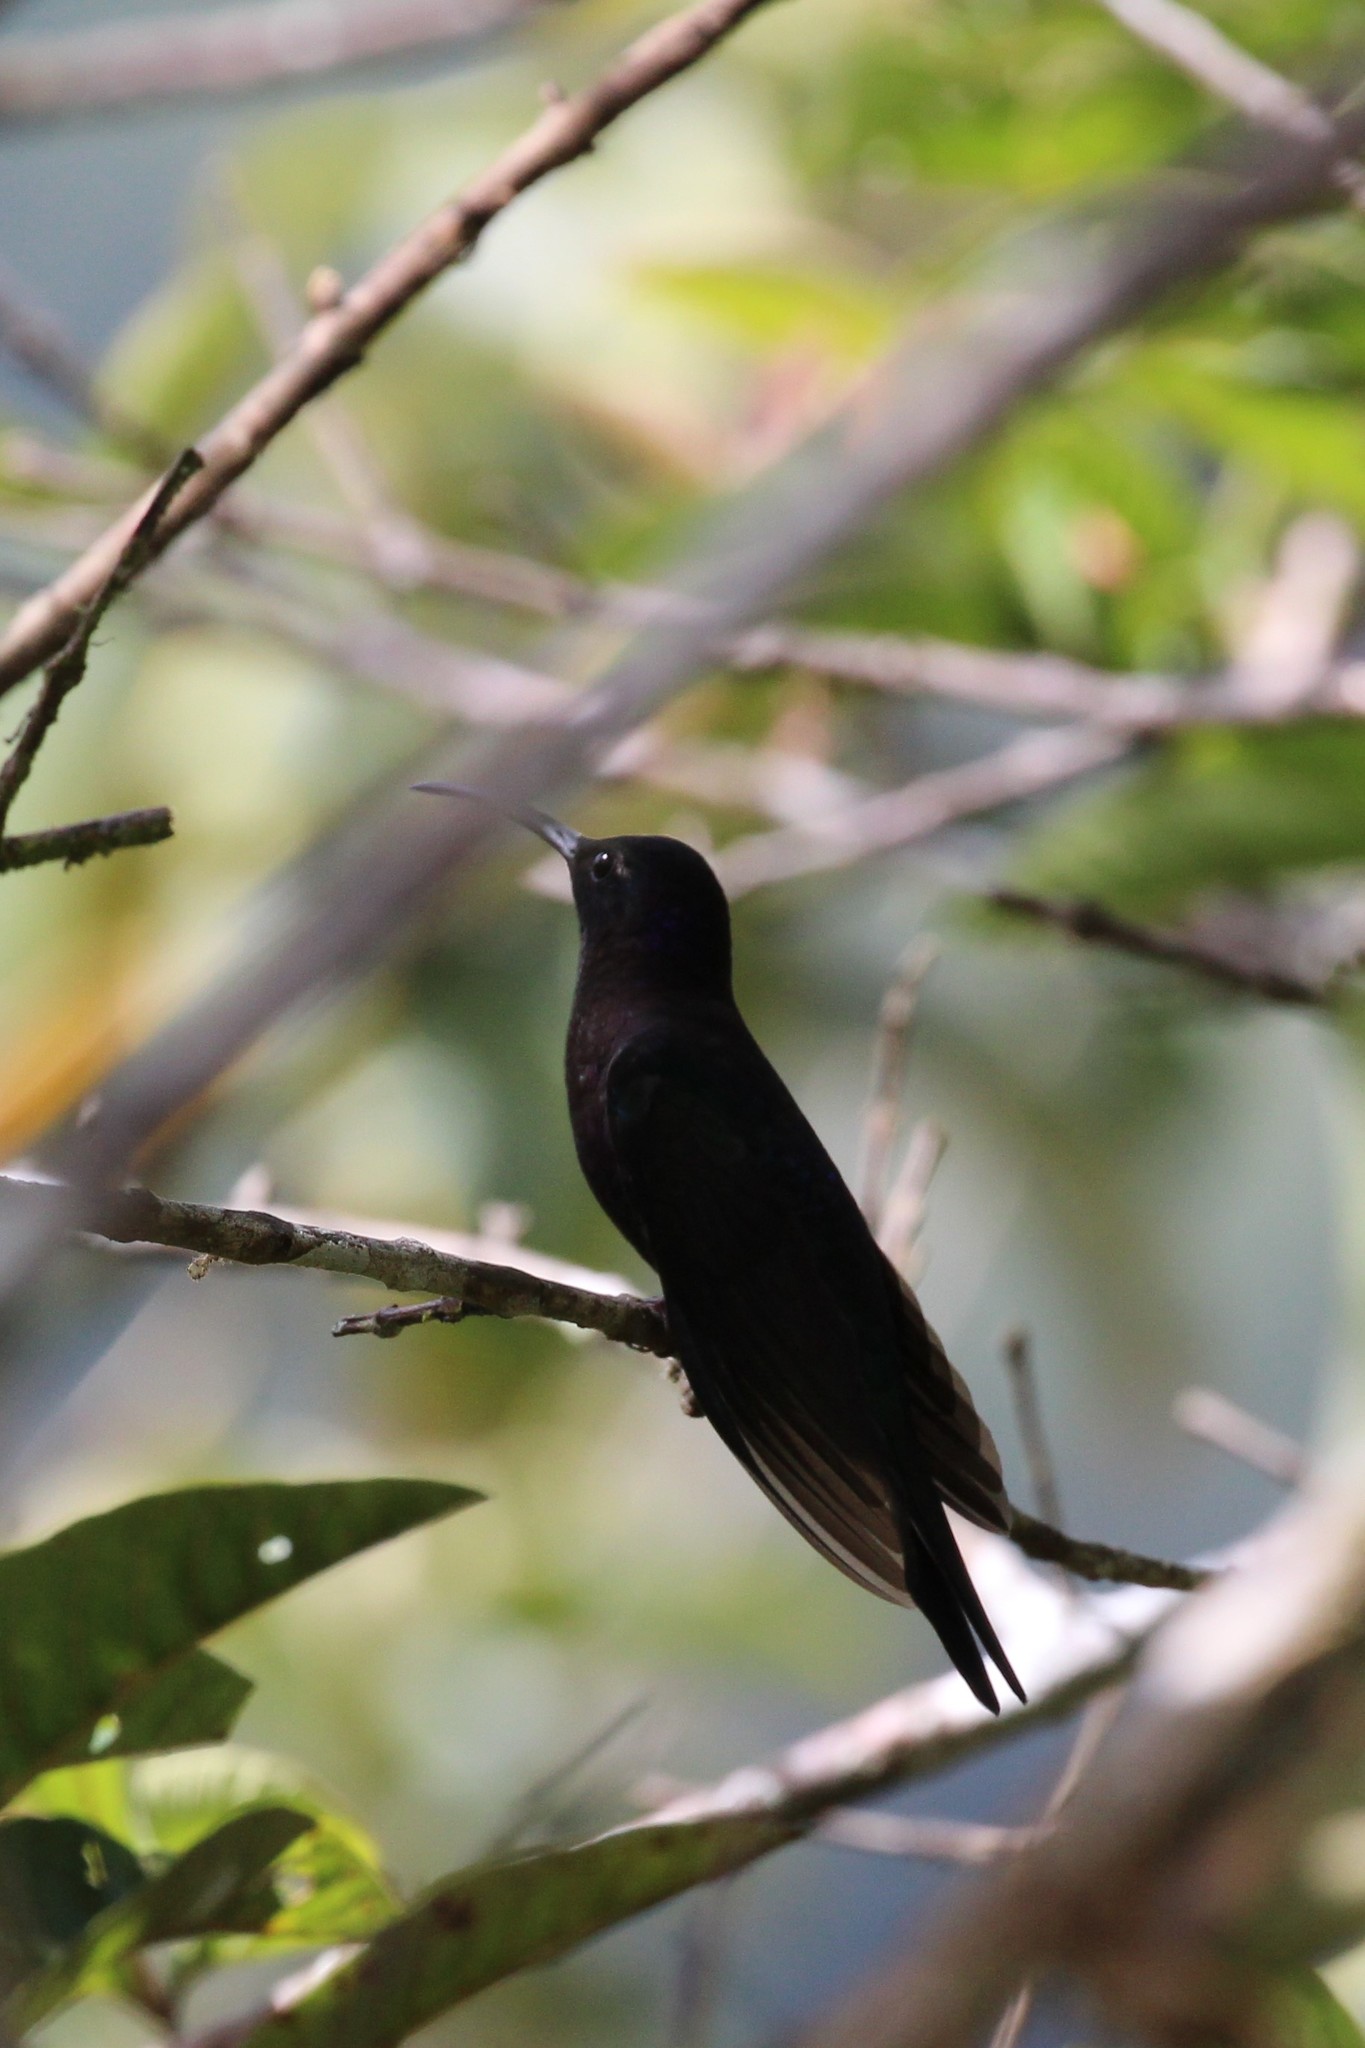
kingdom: Animalia
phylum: Chordata
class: Aves
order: Apodiformes
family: Trochilidae
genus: Campylopterus
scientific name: Campylopterus hemileucurus
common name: Violet sabrewing
